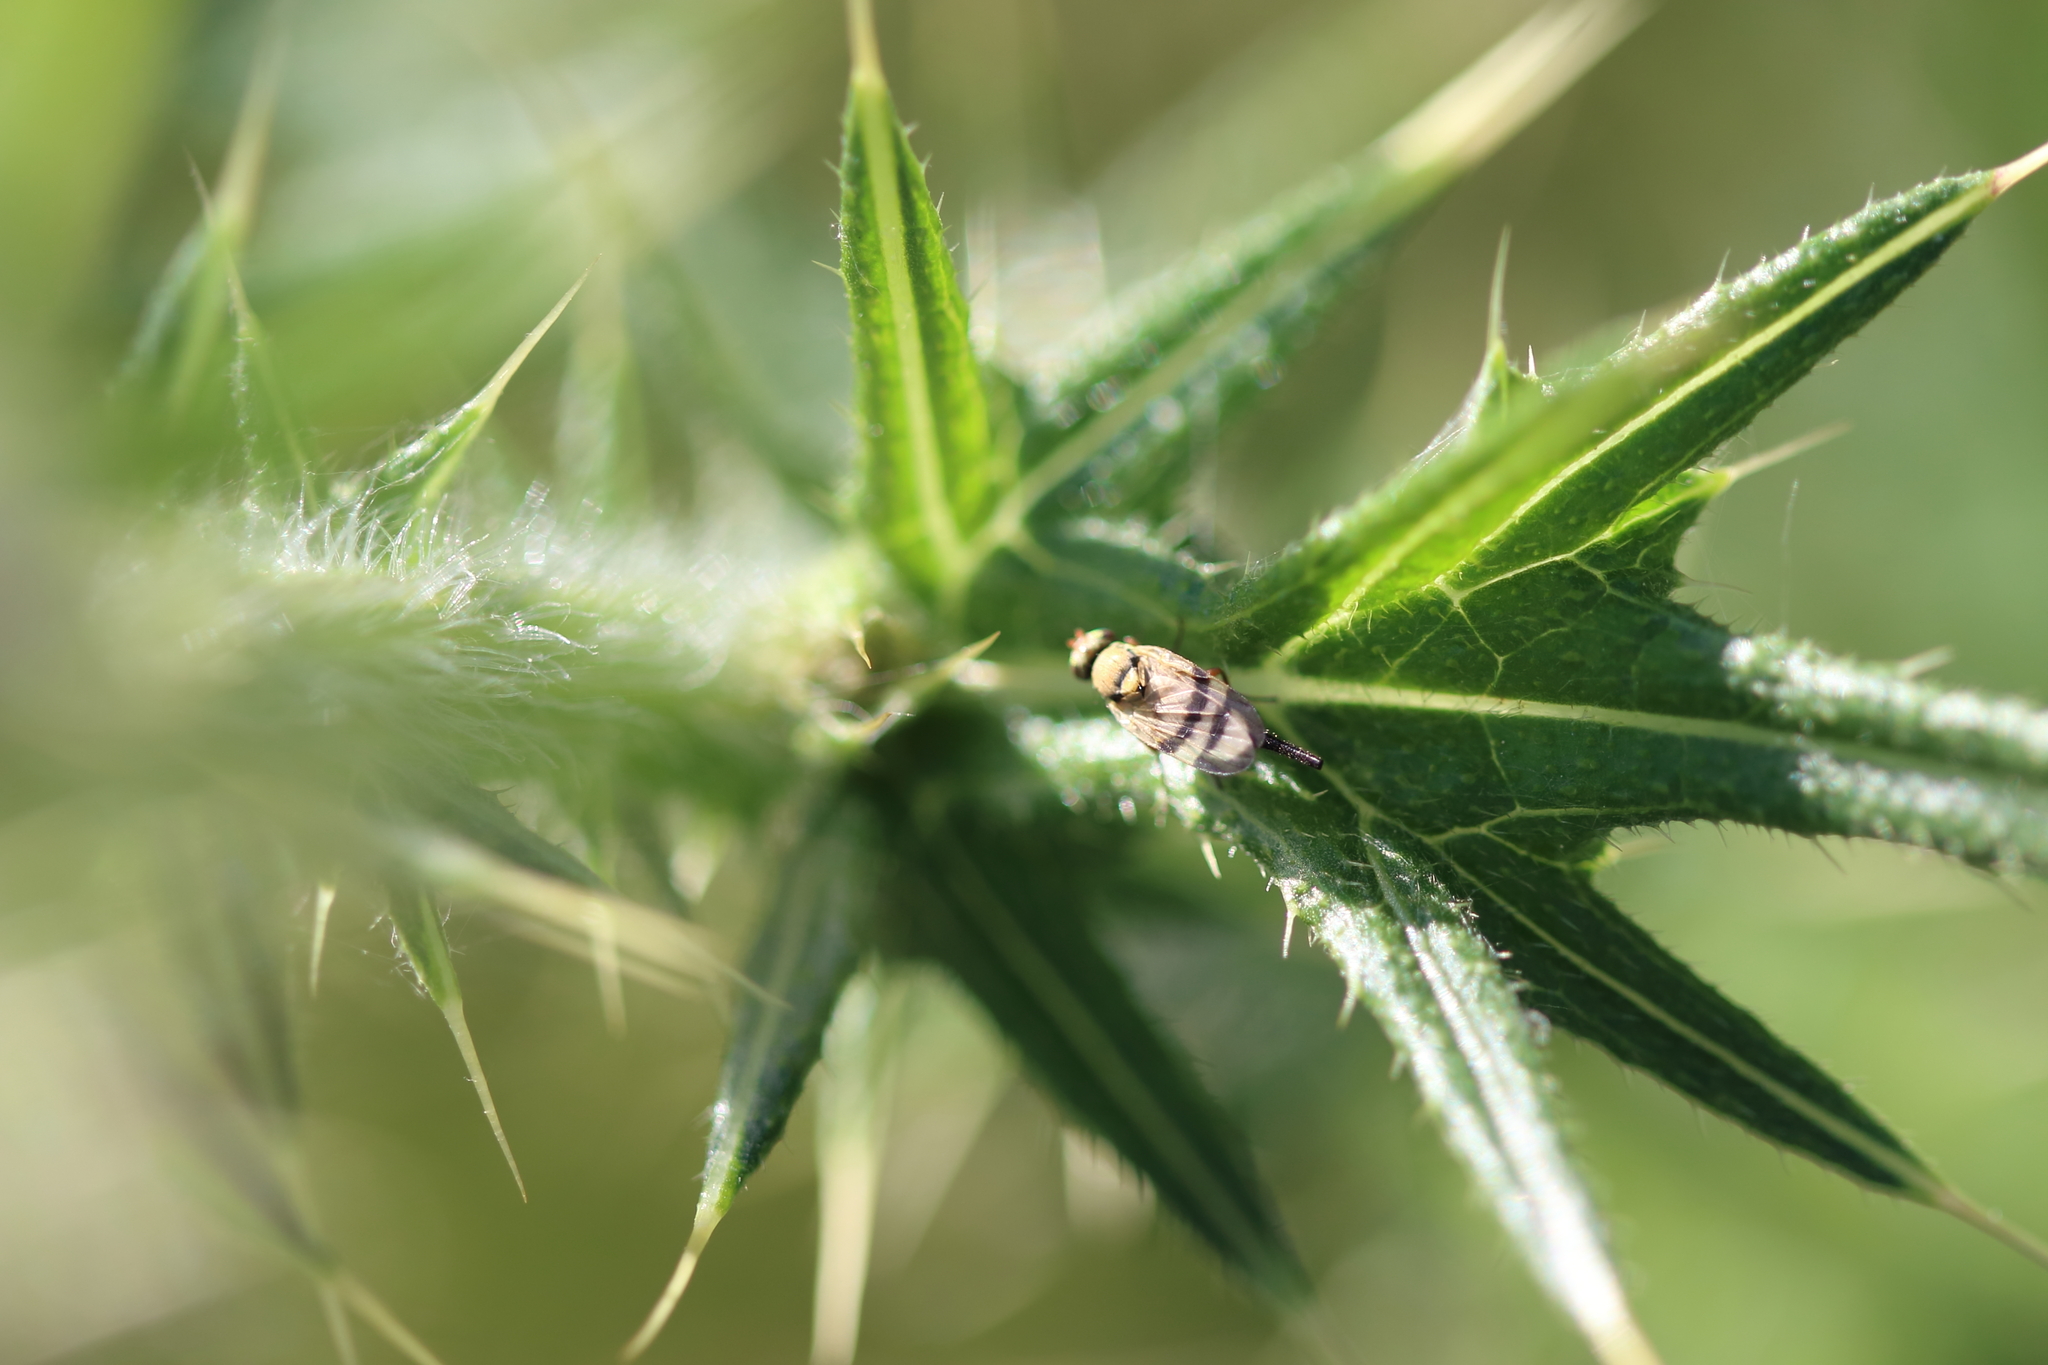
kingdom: Animalia
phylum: Arthropoda
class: Insecta
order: Diptera
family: Tephritidae
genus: Urophora
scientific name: Urophora stylata
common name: Fruit fly
